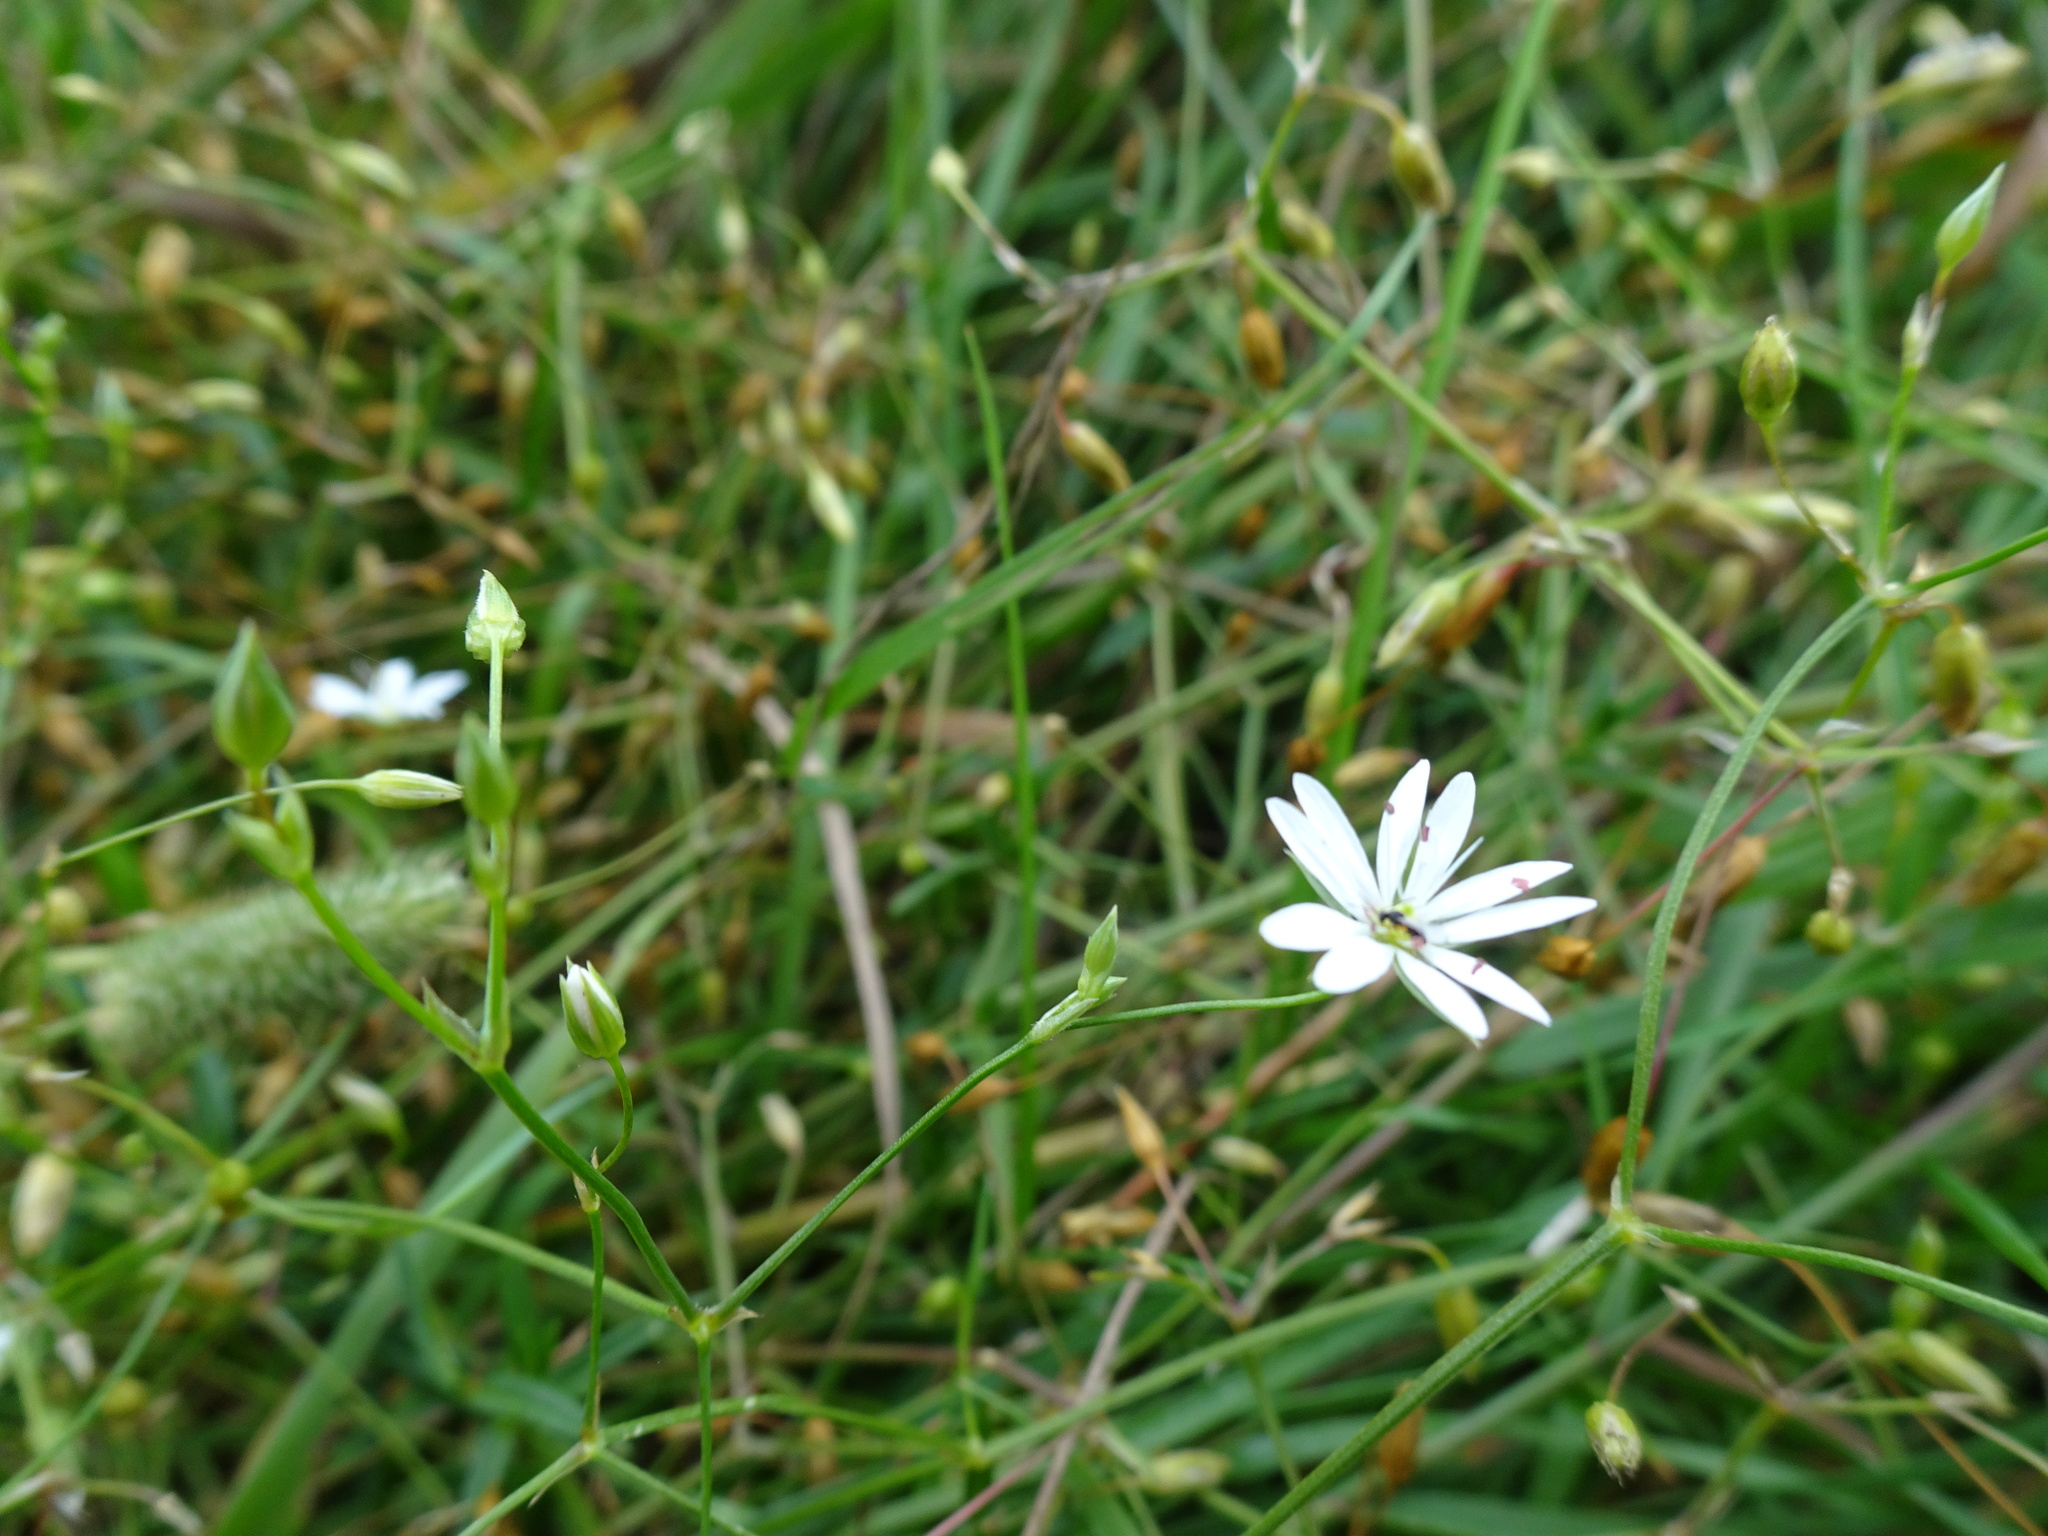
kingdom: Plantae
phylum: Tracheophyta
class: Magnoliopsida
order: Caryophyllales
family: Caryophyllaceae
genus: Stellaria
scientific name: Stellaria graminea
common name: Grass-like starwort
